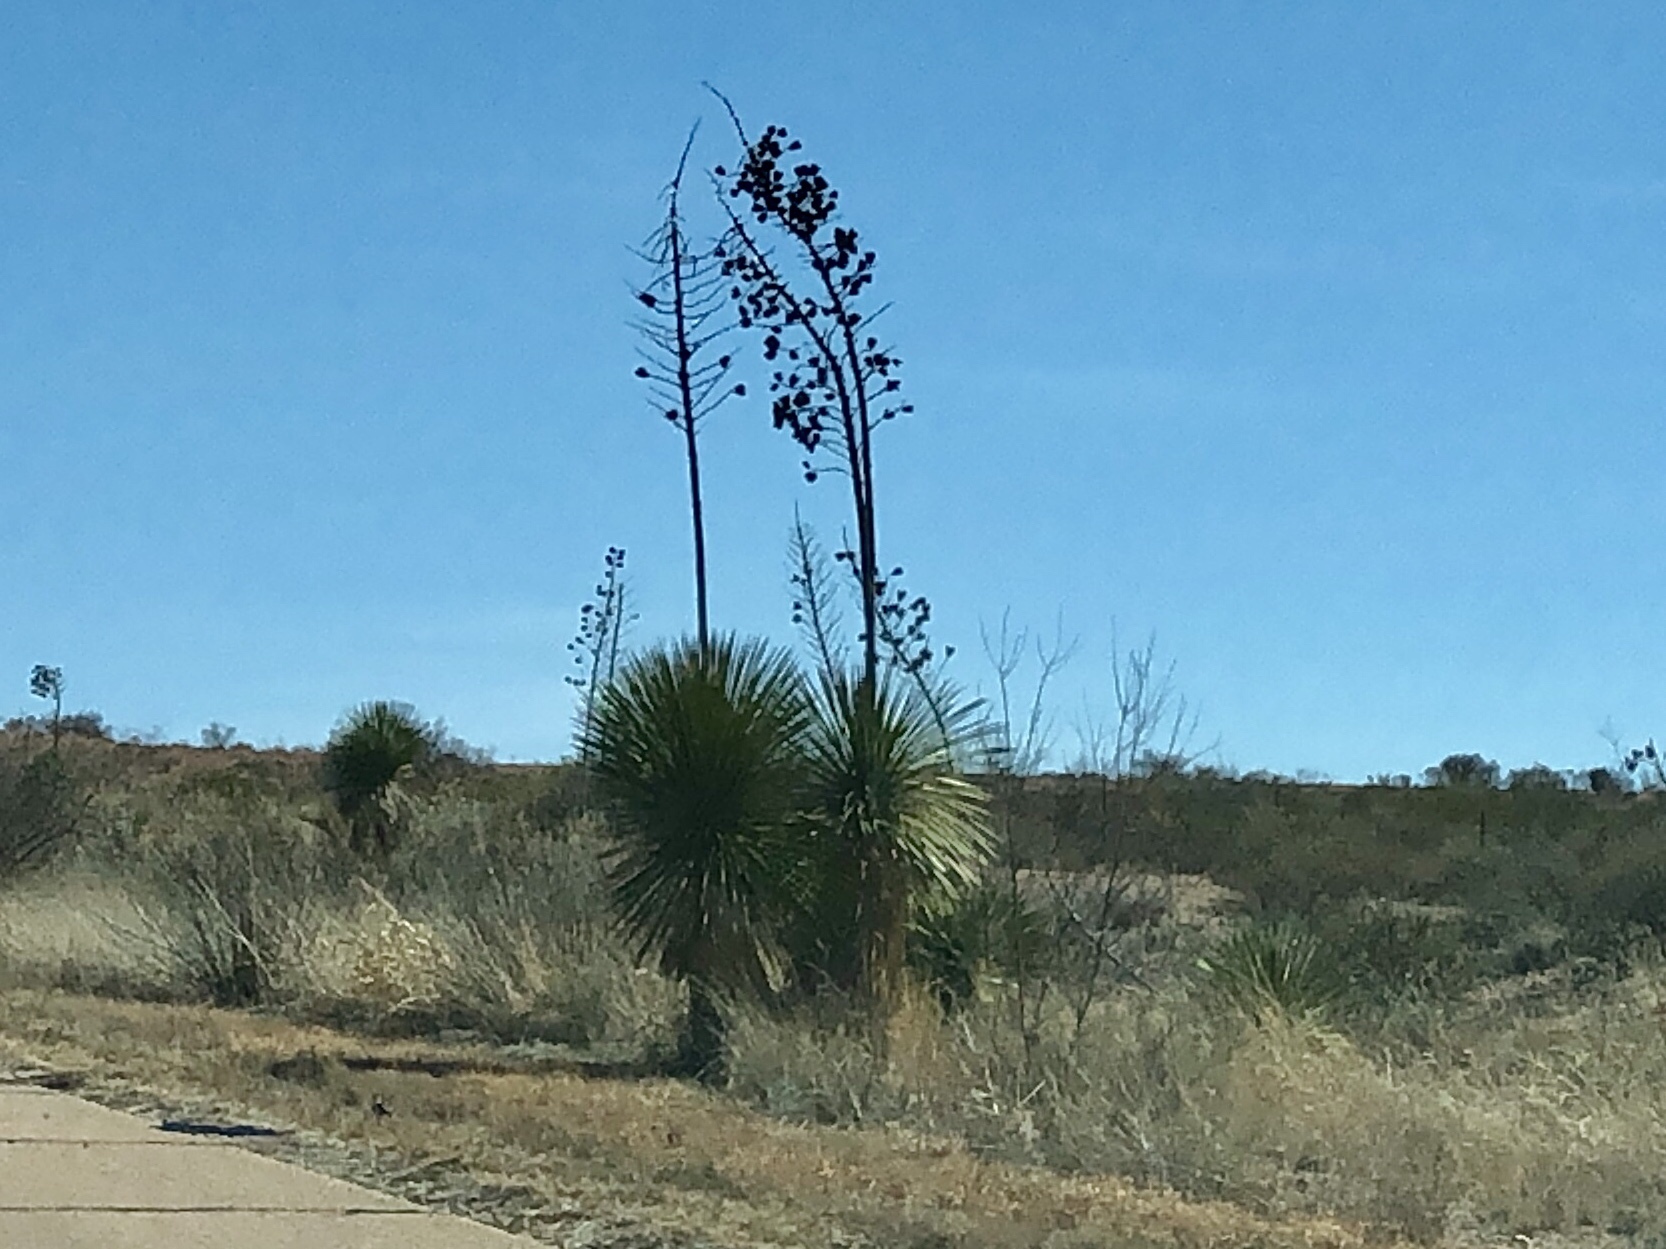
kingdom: Plantae
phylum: Tracheophyta
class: Liliopsida
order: Asparagales
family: Asparagaceae
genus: Yucca
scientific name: Yucca elata
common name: Palmella
